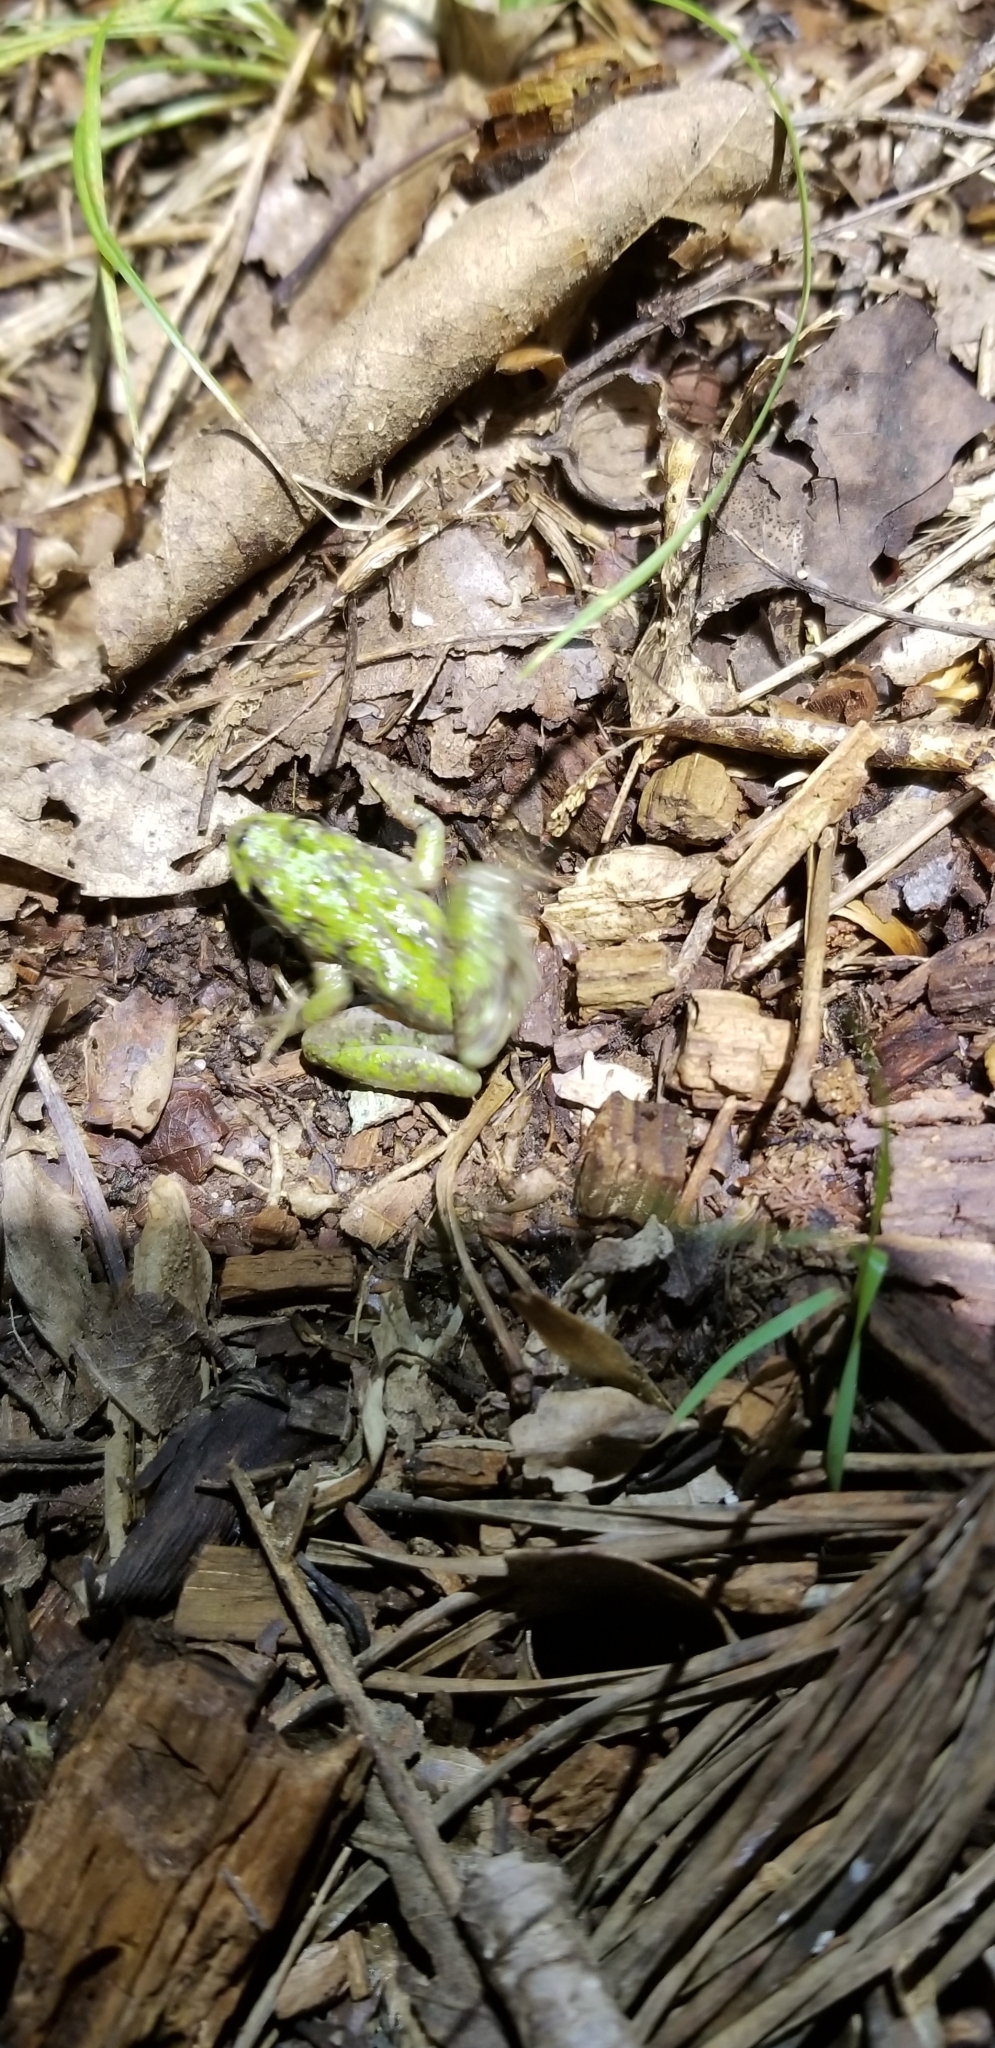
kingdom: Animalia
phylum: Chordata
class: Amphibia
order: Anura
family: Hylidae
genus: Acris
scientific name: Acris crepitans
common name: Northern cricket frog
